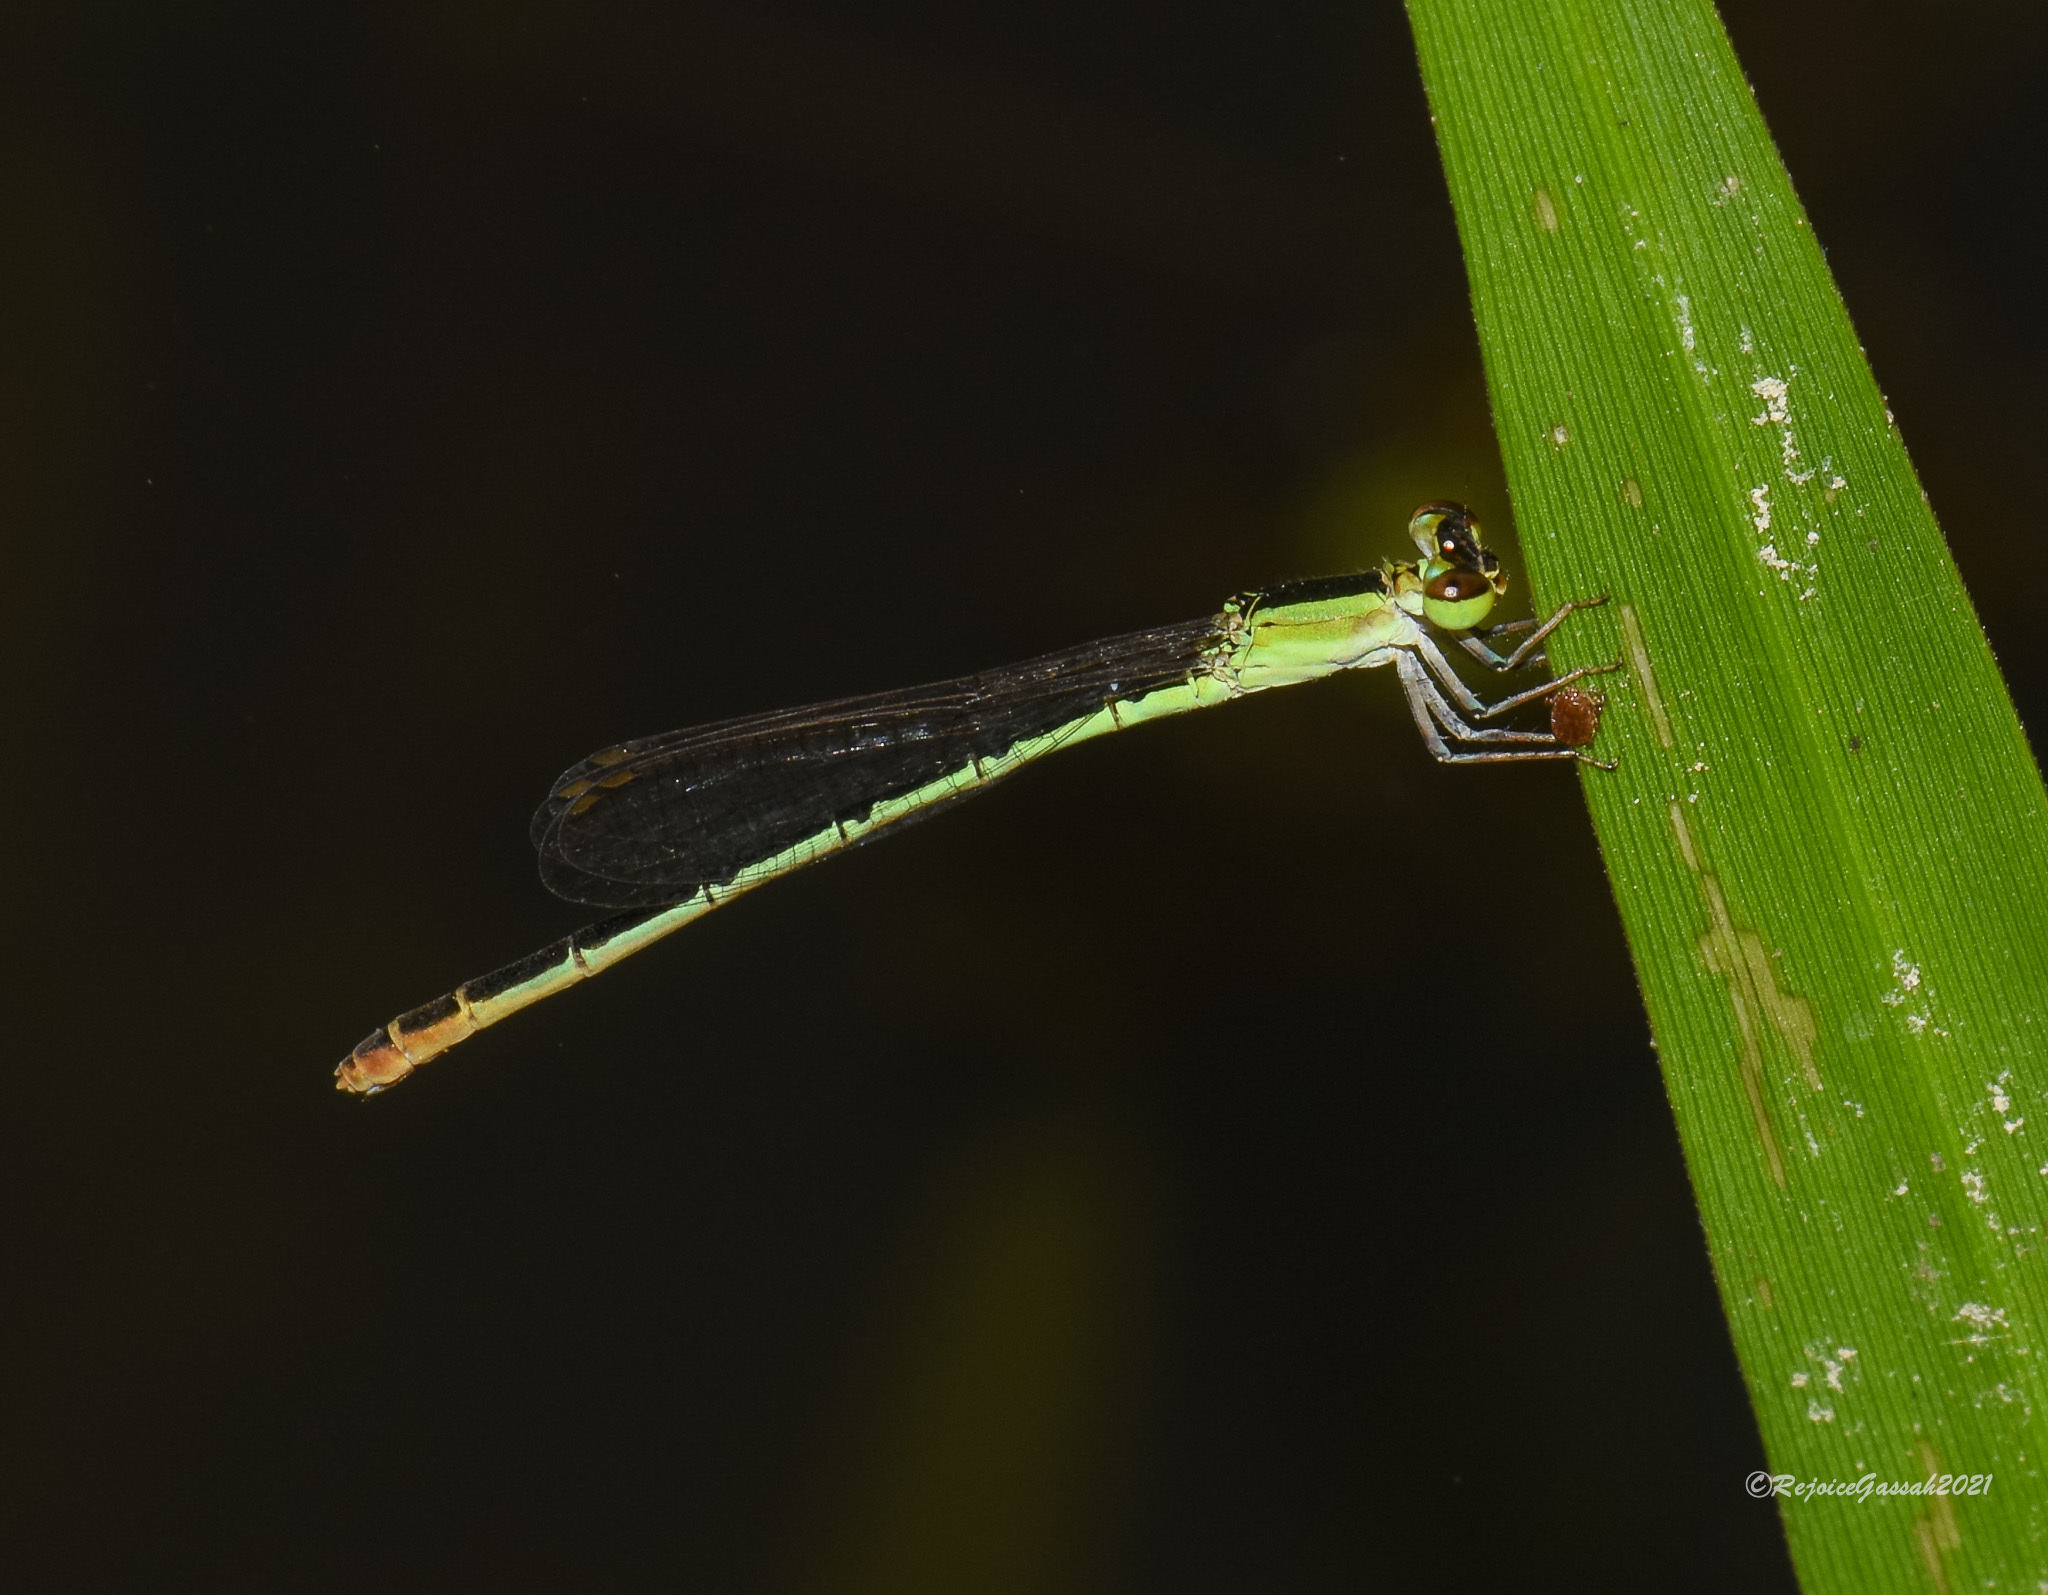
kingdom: Animalia
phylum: Arthropoda
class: Insecta
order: Odonata
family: Coenagrionidae
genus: Agriocnemis
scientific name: Agriocnemis pygmaea
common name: Pygmy wisp
